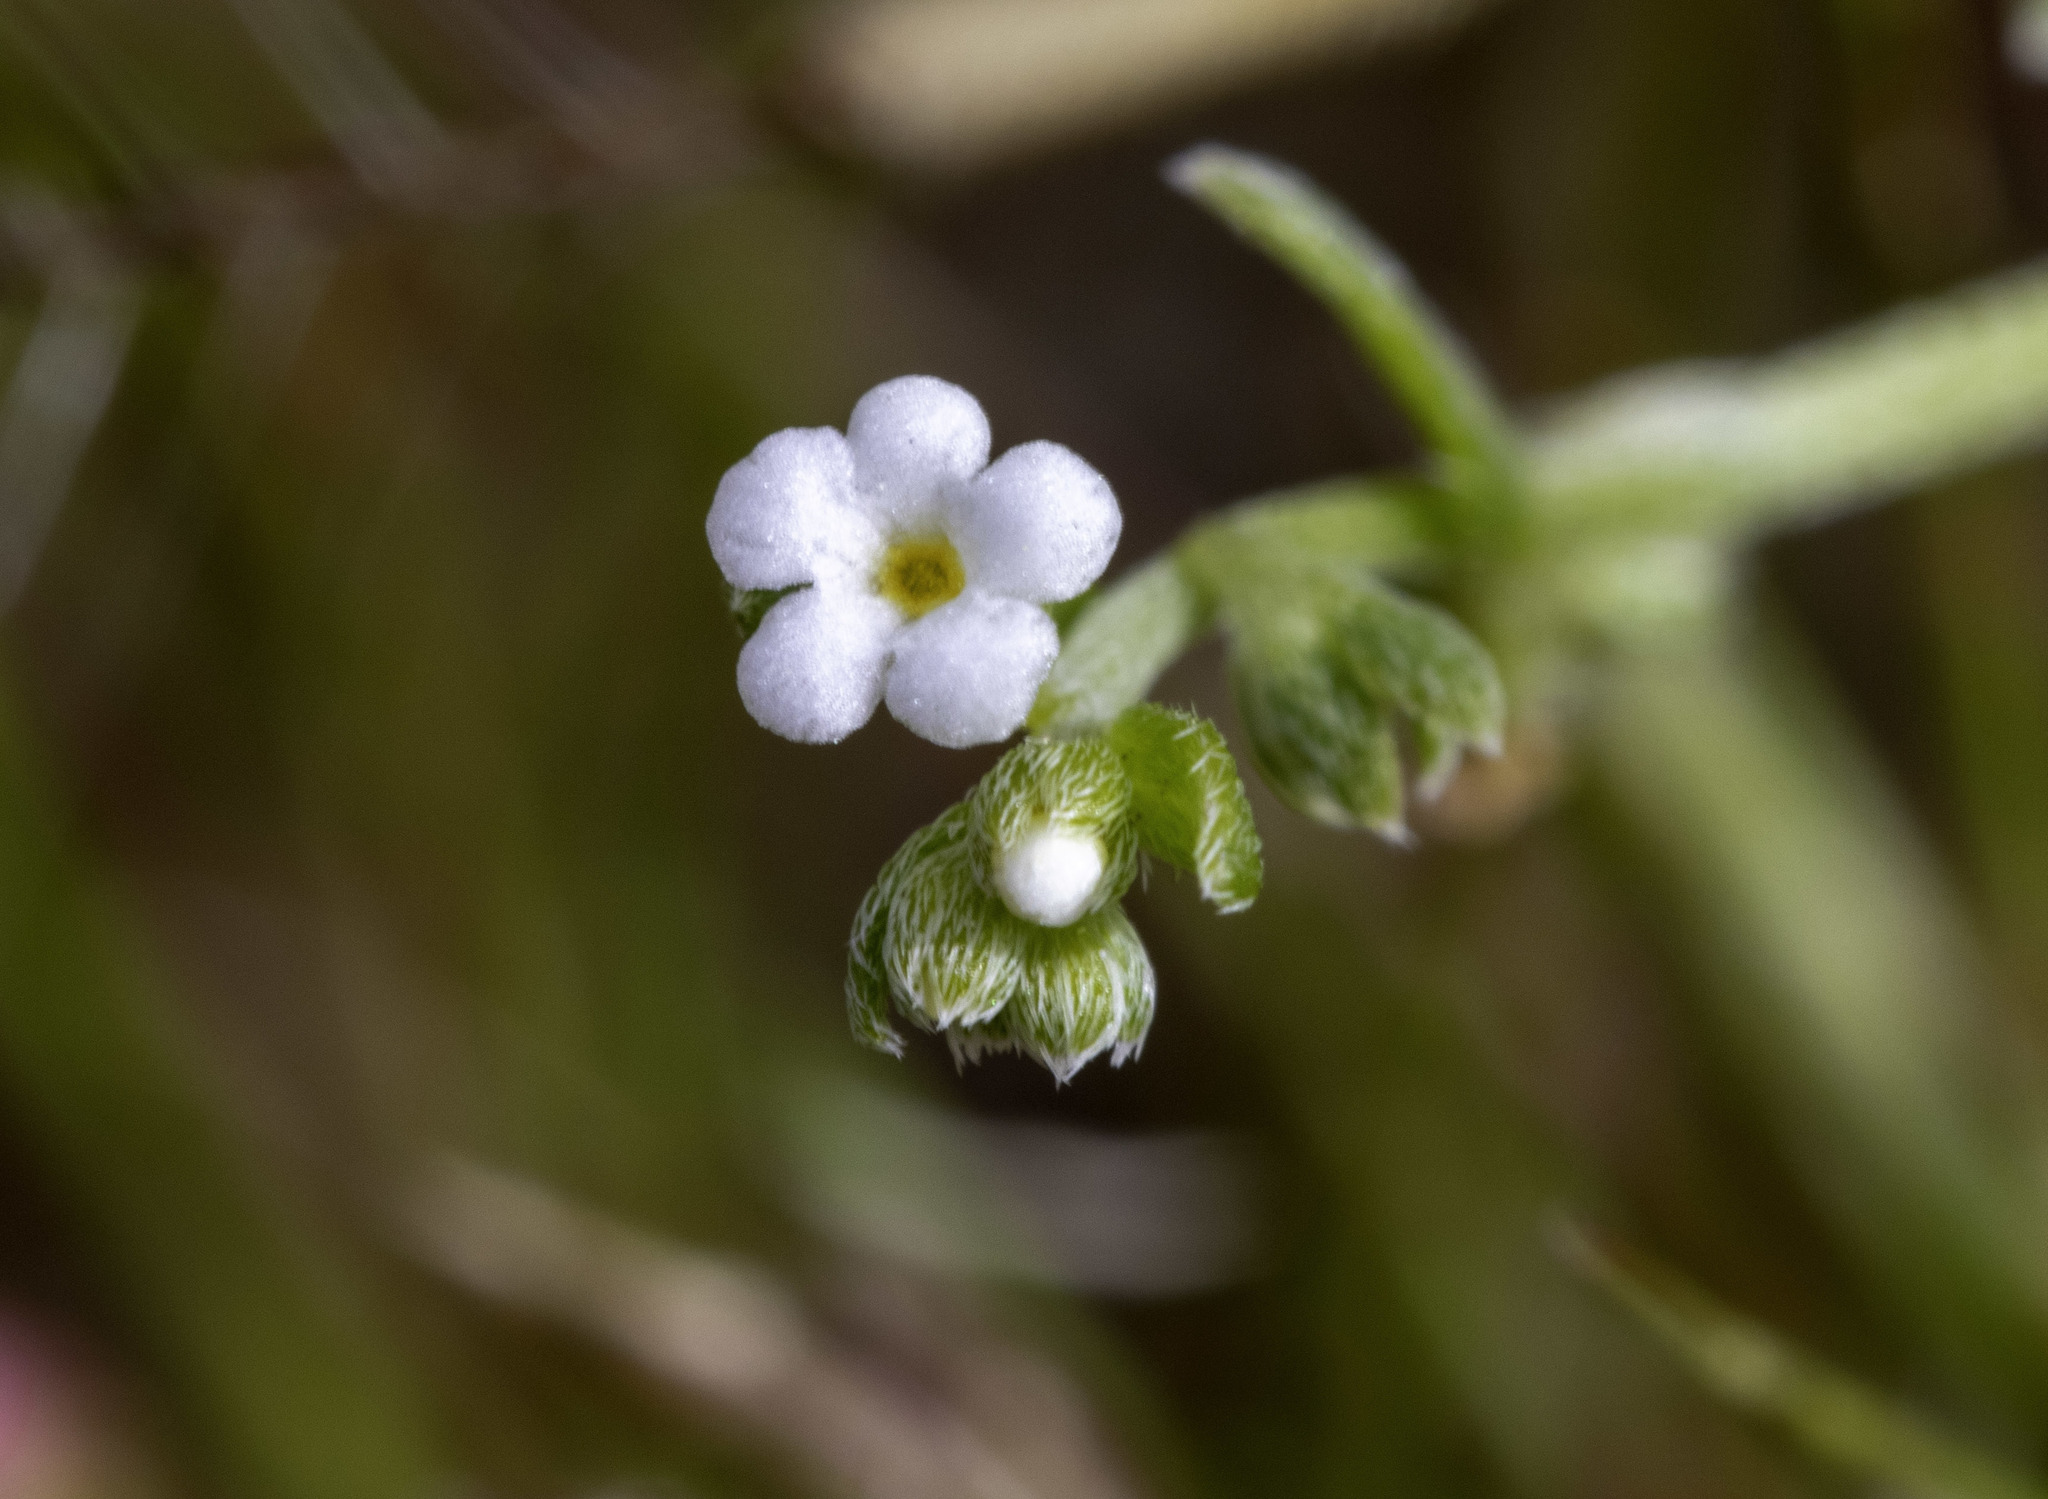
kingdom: Plantae
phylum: Tracheophyta
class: Magnoliopsida
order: Boraginales
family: Boraginaceae
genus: Pectocarya
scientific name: Pectocarya anisocarpa
